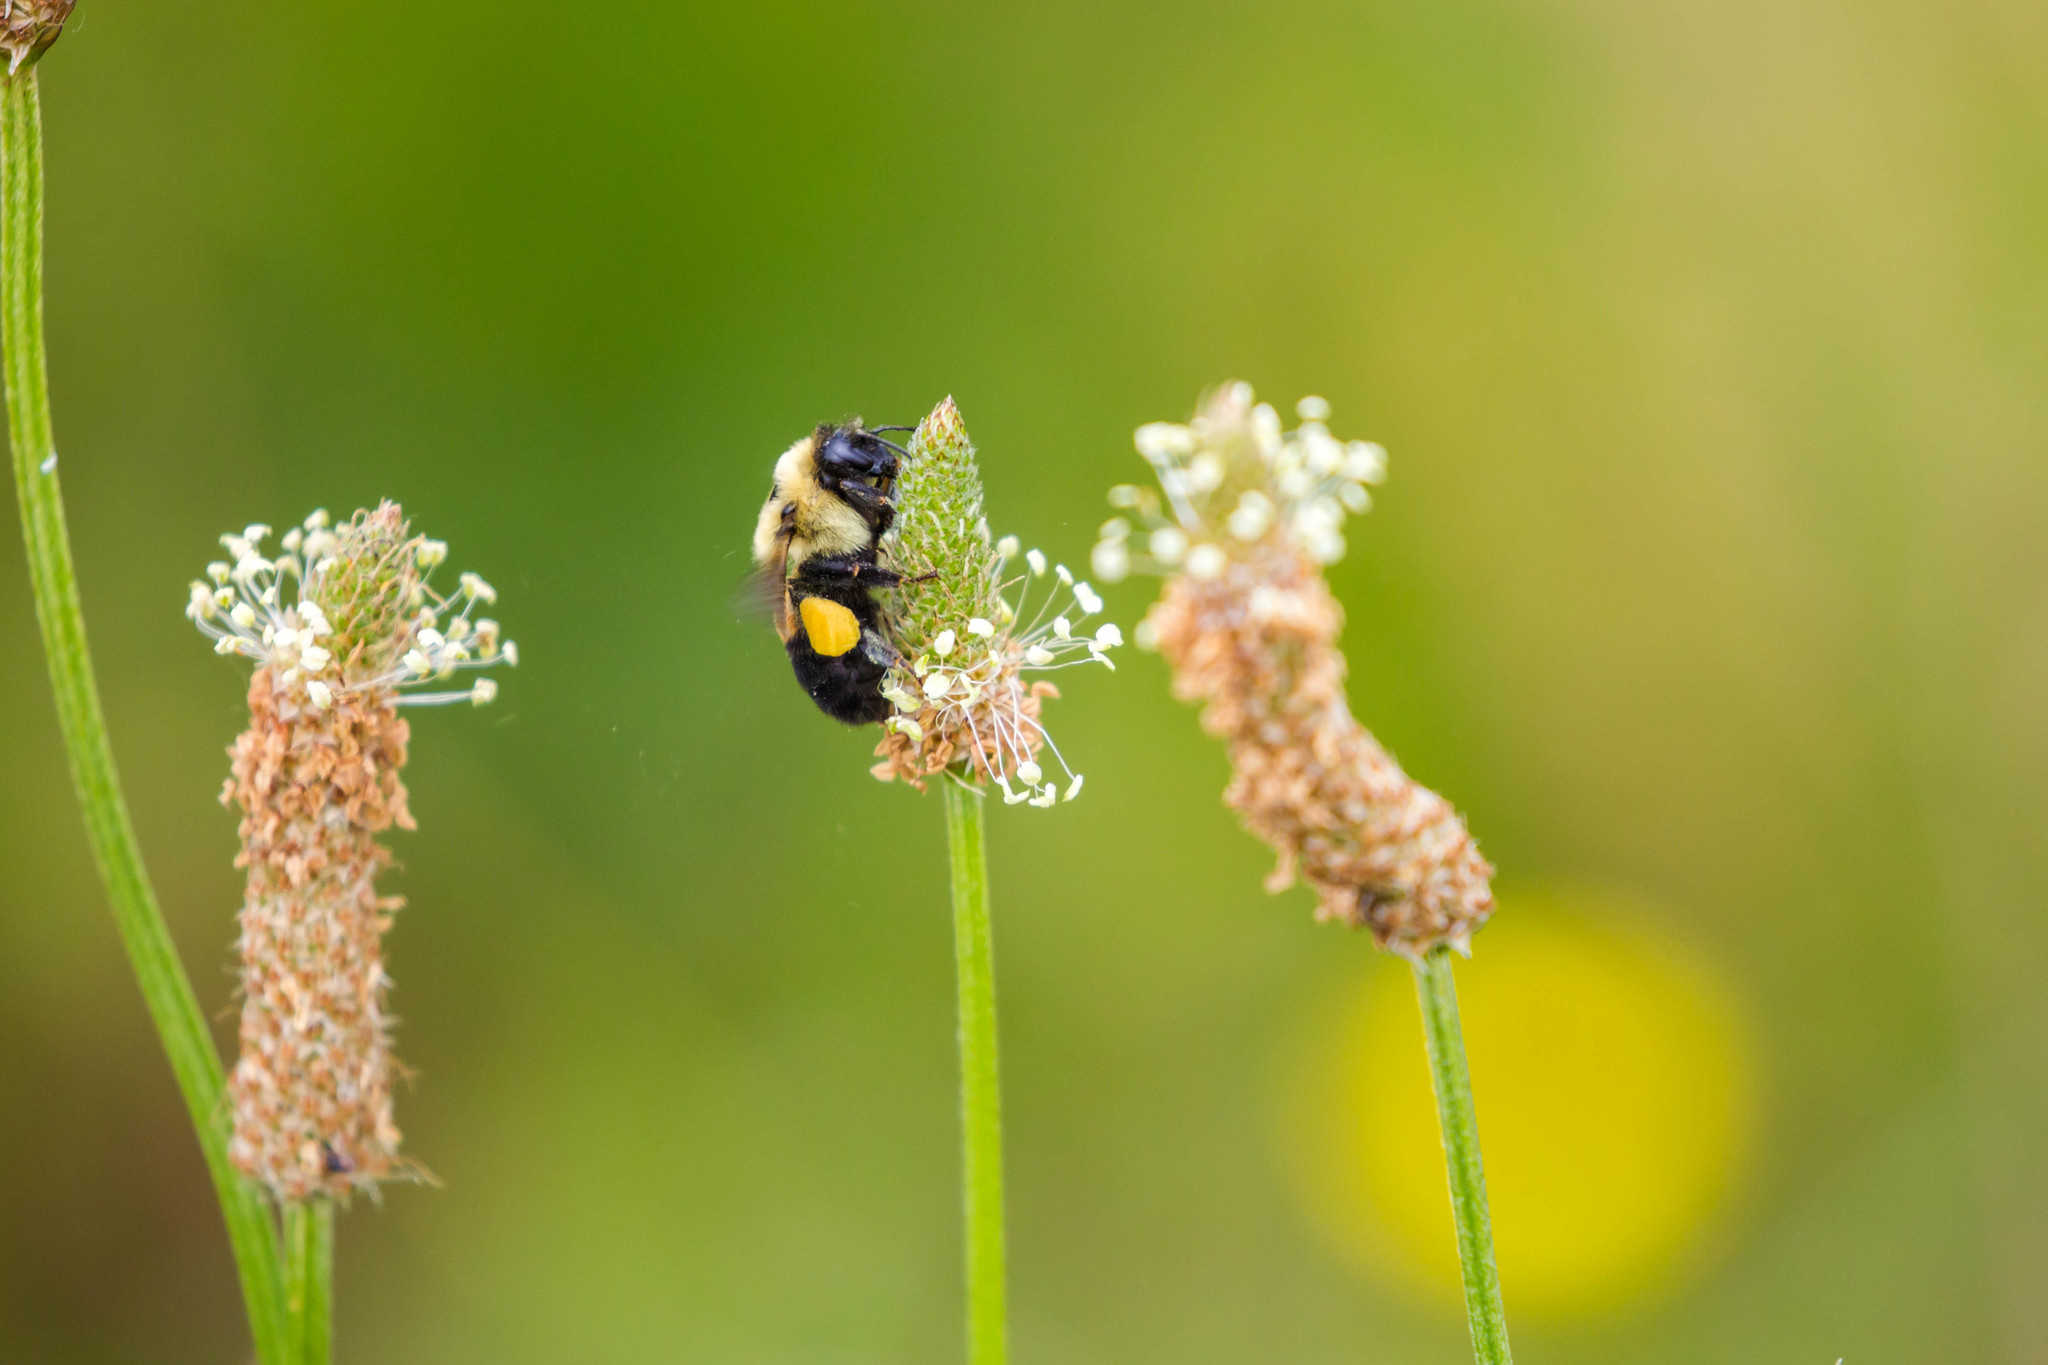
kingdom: Animalia
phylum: Arthropoda
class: Insecta
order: Hymenoptera
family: Apidae
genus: Bombus
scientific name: Bombus griseocollis
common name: Brown-belted bumble bee
